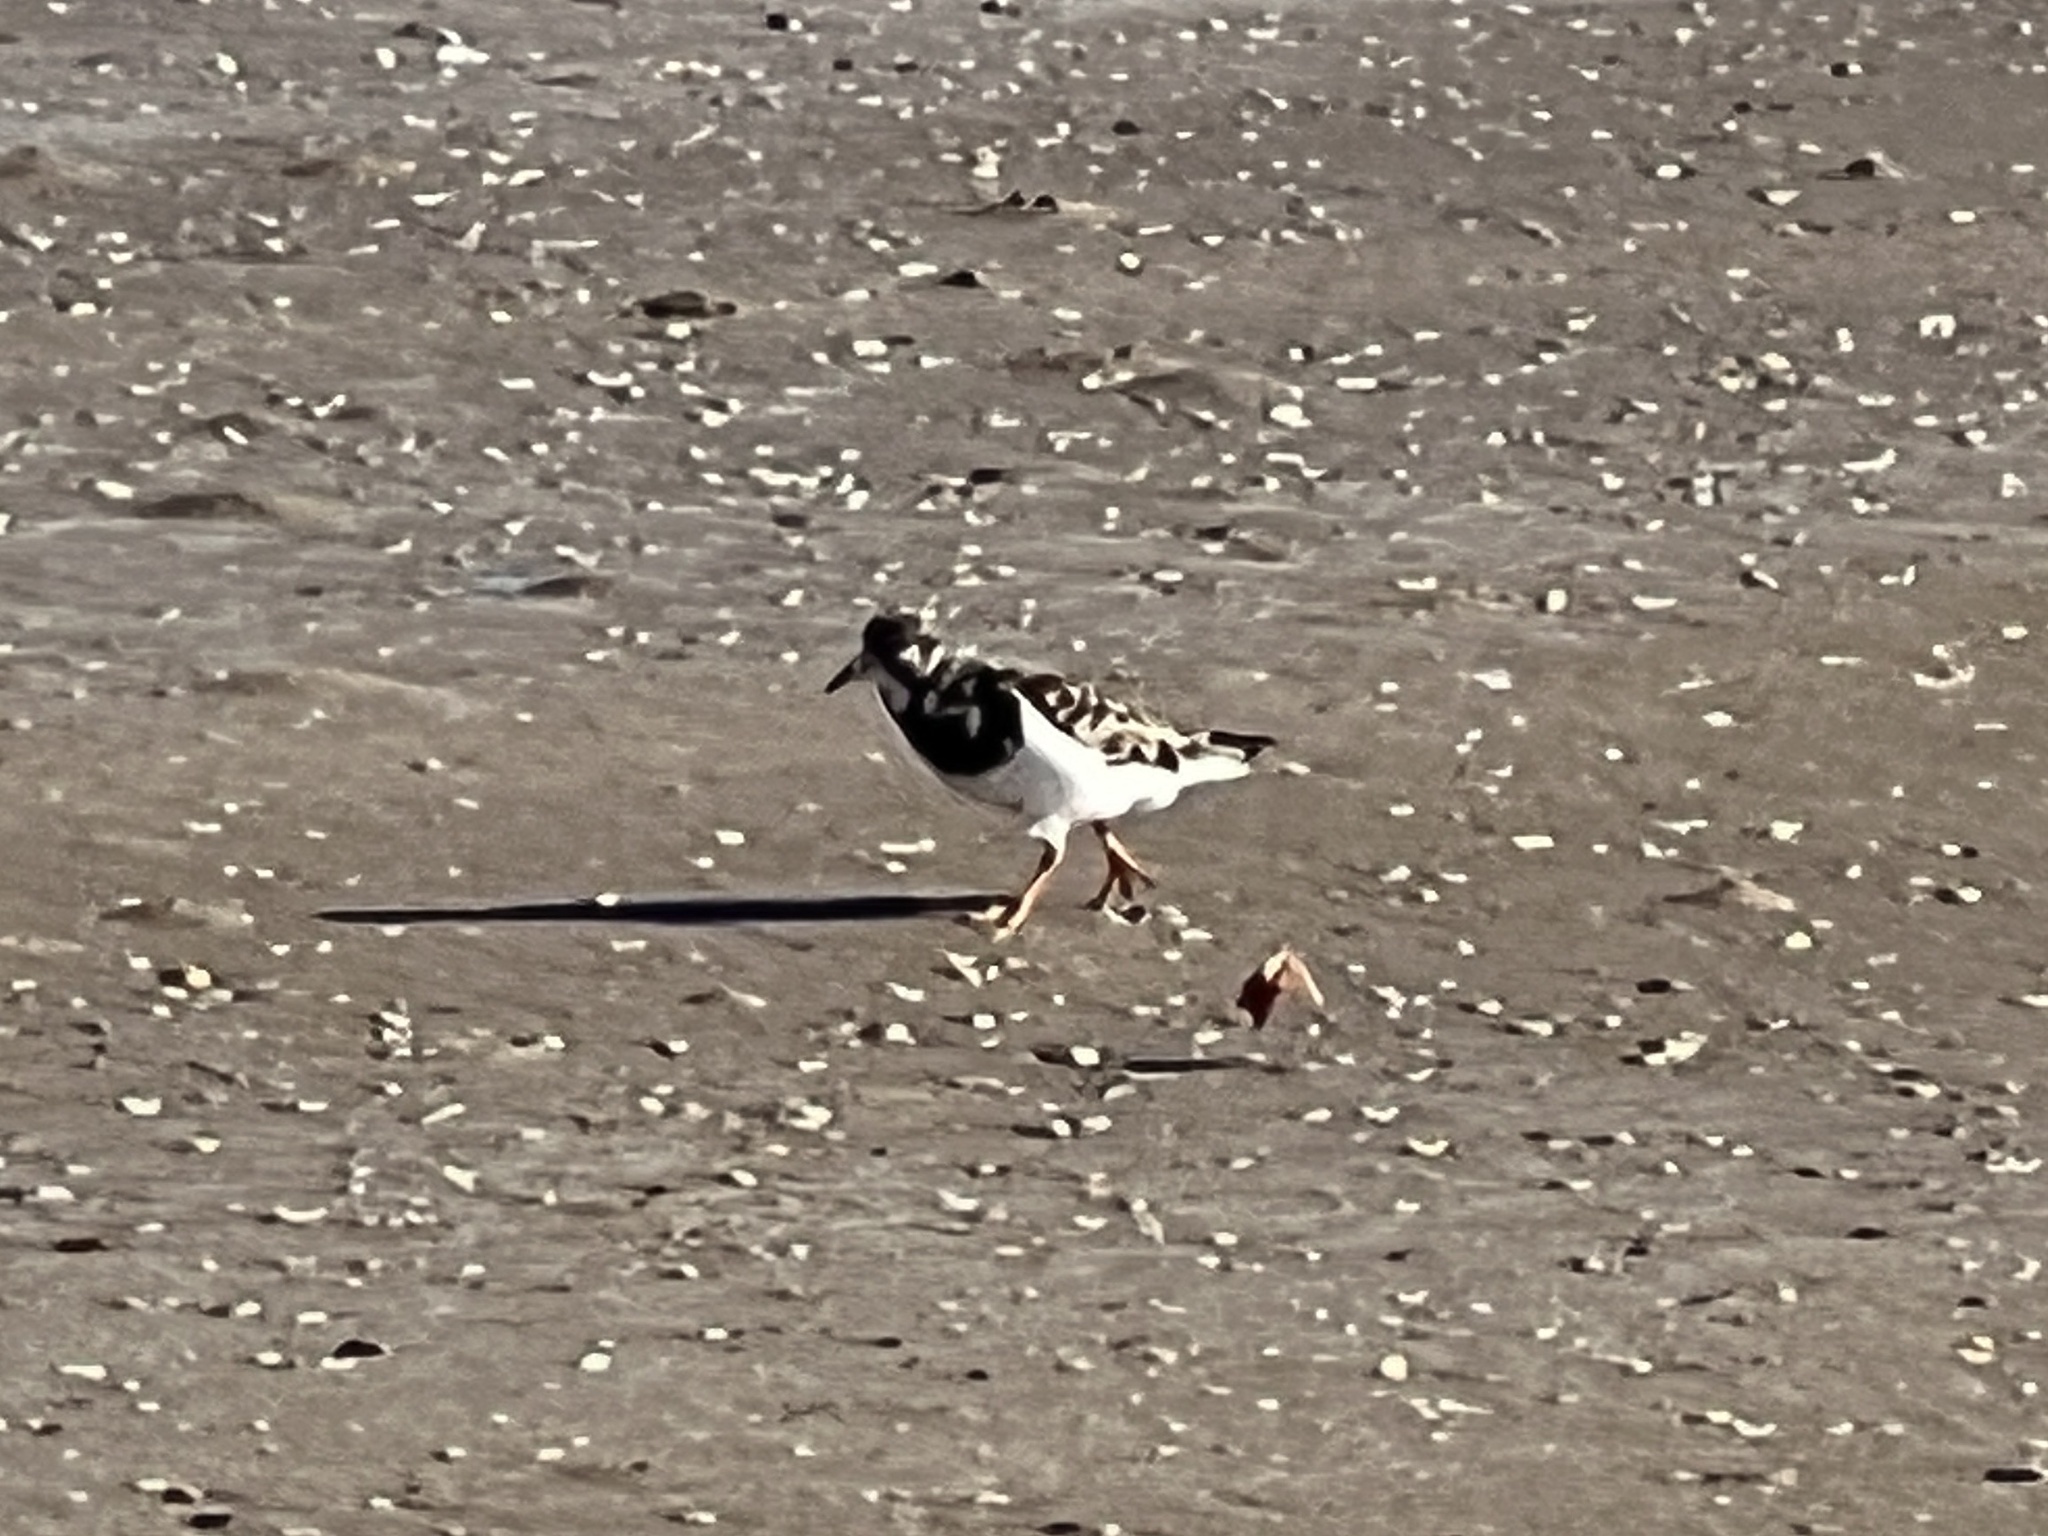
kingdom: Animalia
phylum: Chordata
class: Aves
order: Charadriiformes
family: Scolopacidae
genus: Arenaria
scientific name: Arenaria interpres
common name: Ruddy turnstone
